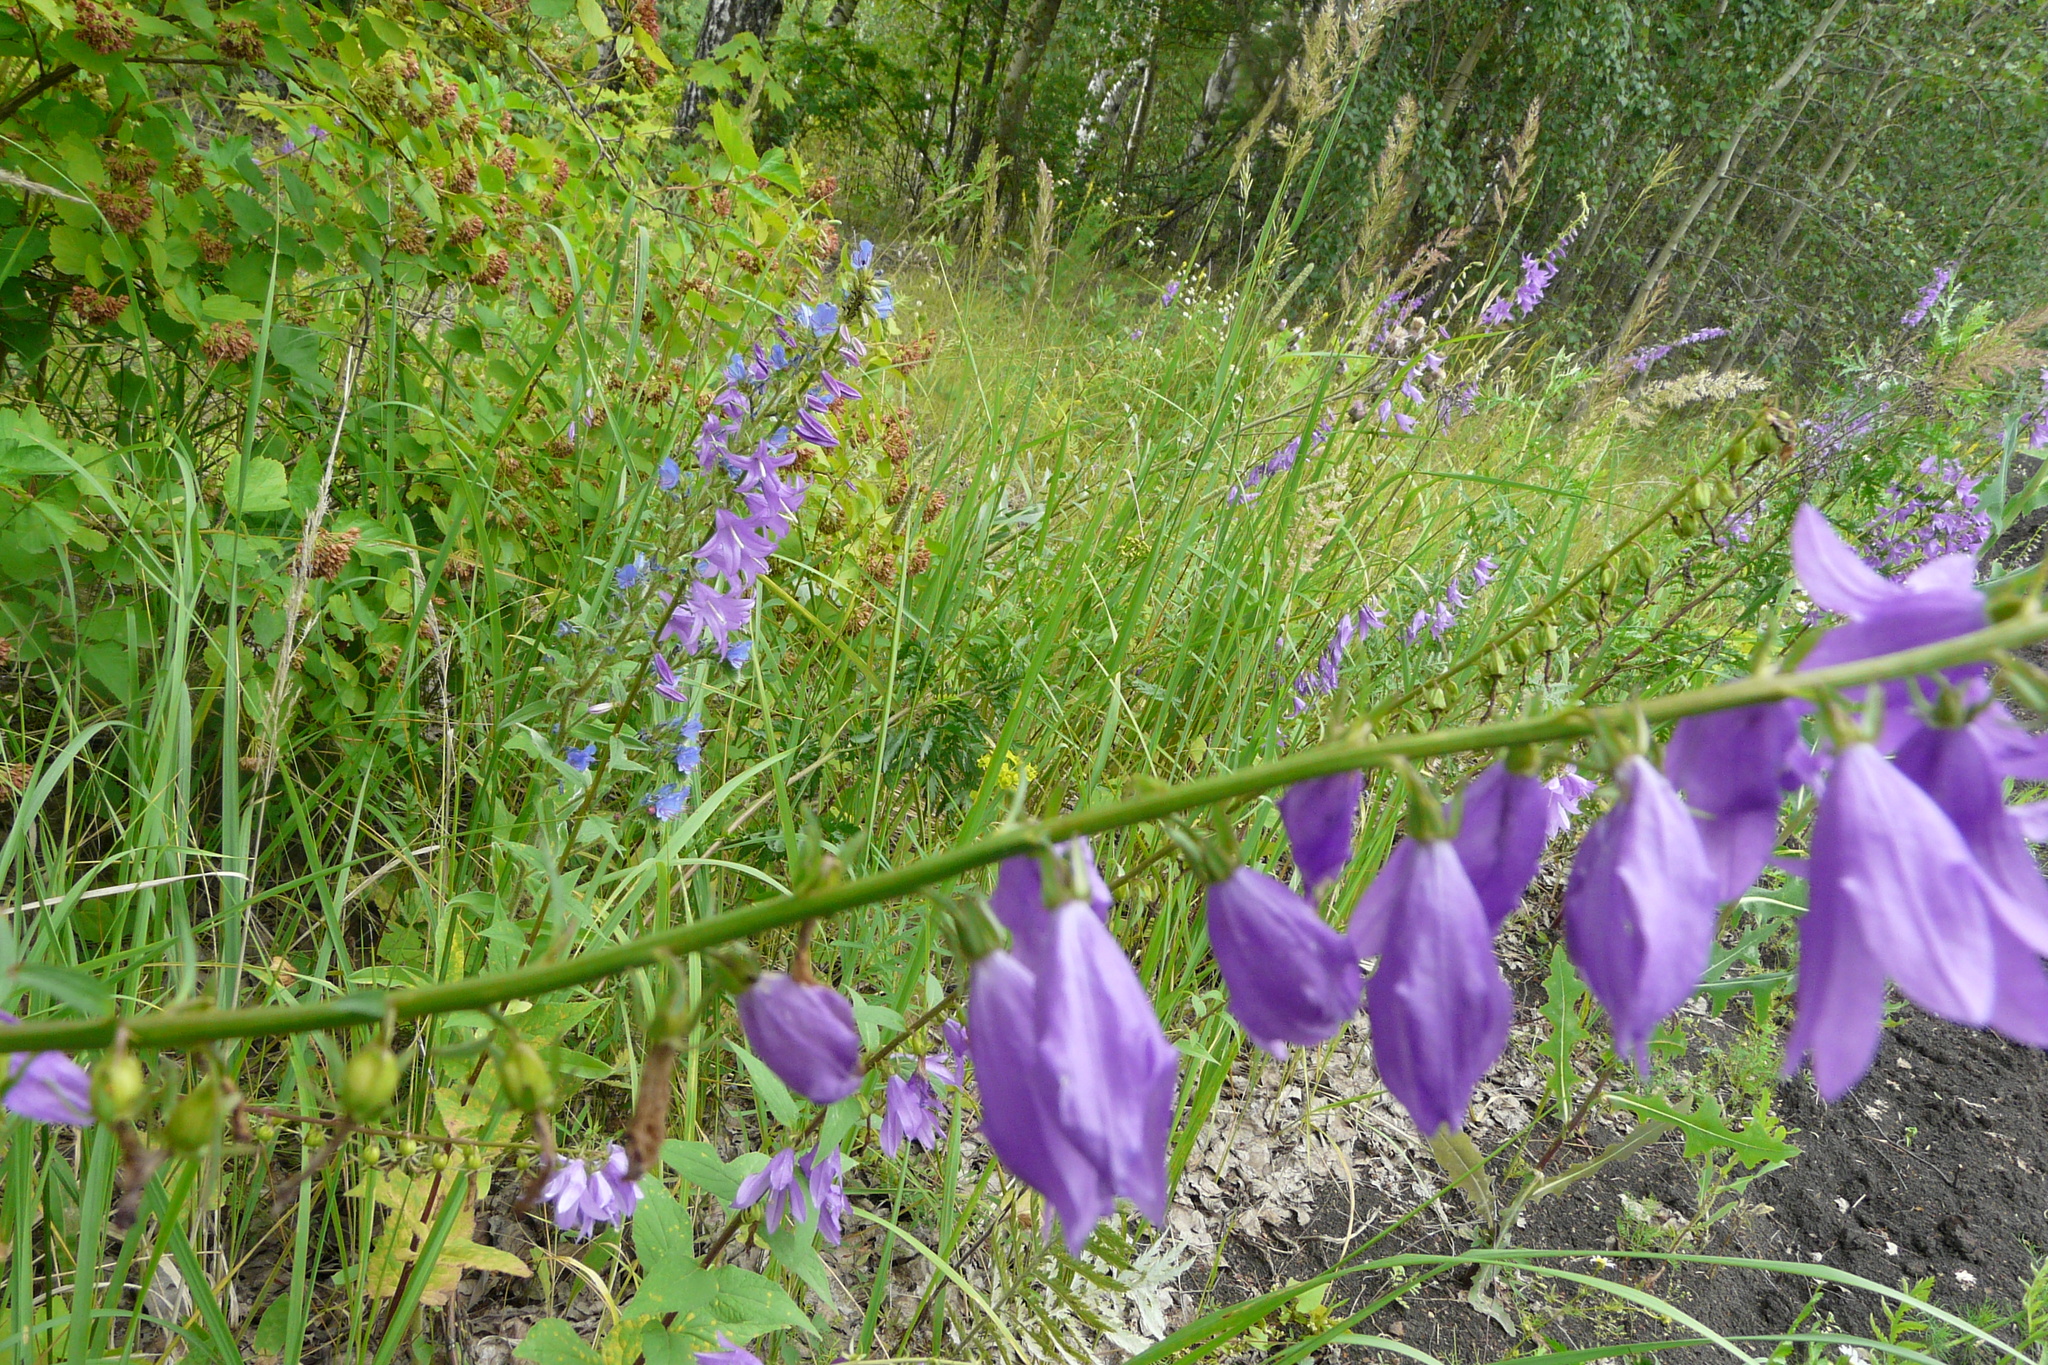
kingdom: Plantae
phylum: Tracheophyta
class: Magnoliopsida
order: Asterales
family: Campanulaceae
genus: Campanula
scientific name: Campanula rapunculoides
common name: Creeping bellflower
